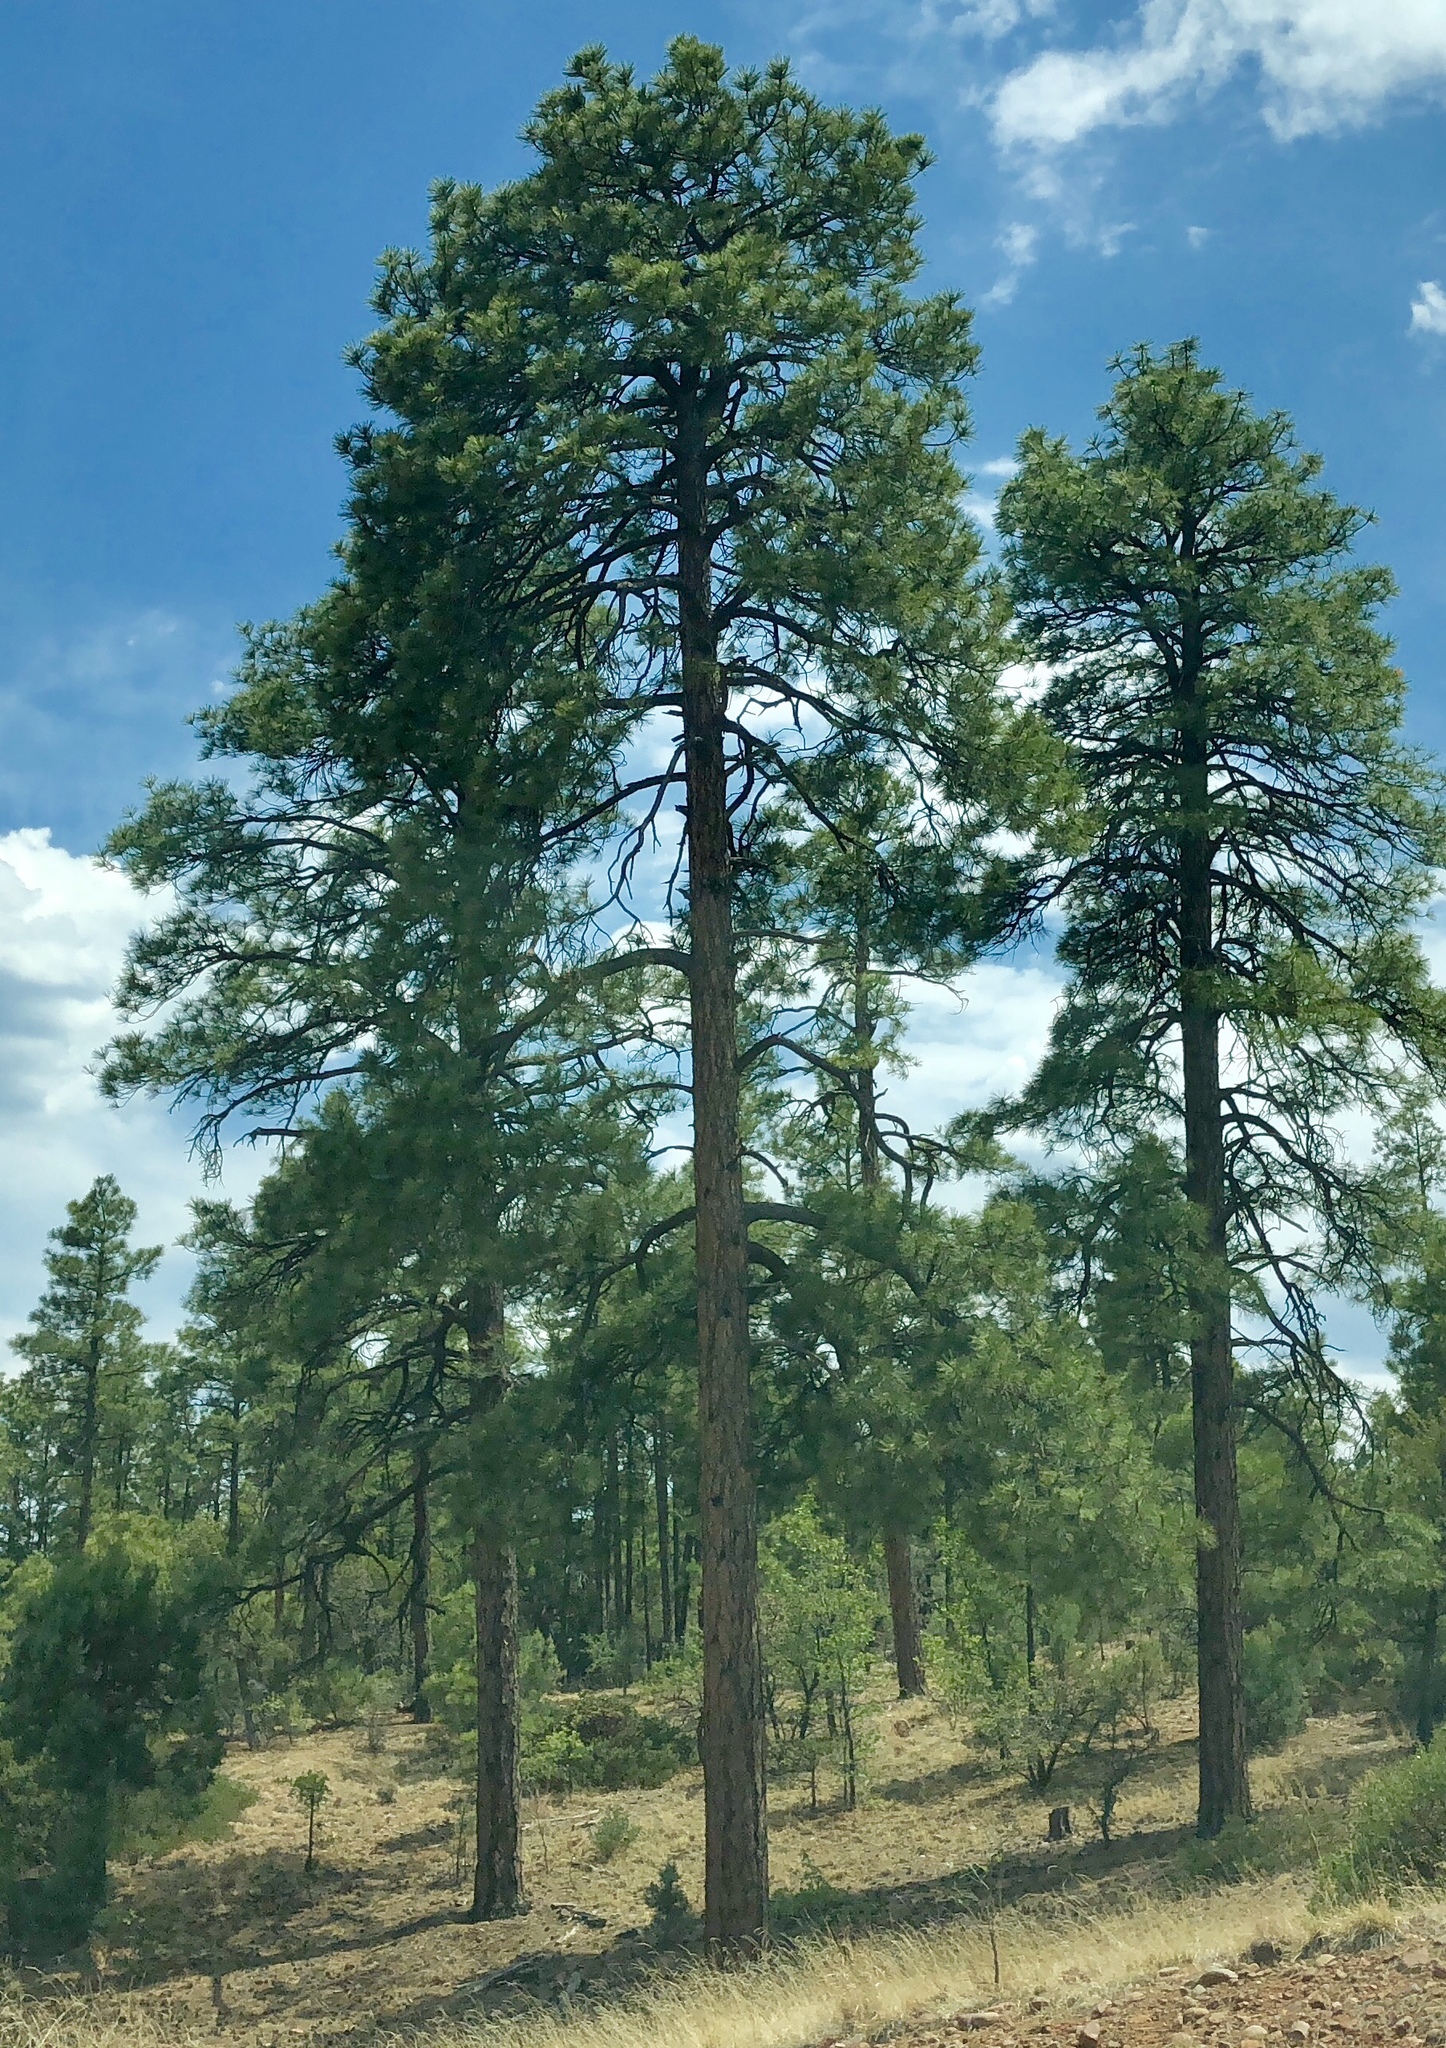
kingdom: Plantae
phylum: Tracheophyta
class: Pinopsida
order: Pinales
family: Pinaceae
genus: Pinus
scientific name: Pinus ponderosa
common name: Western yellow-pine
